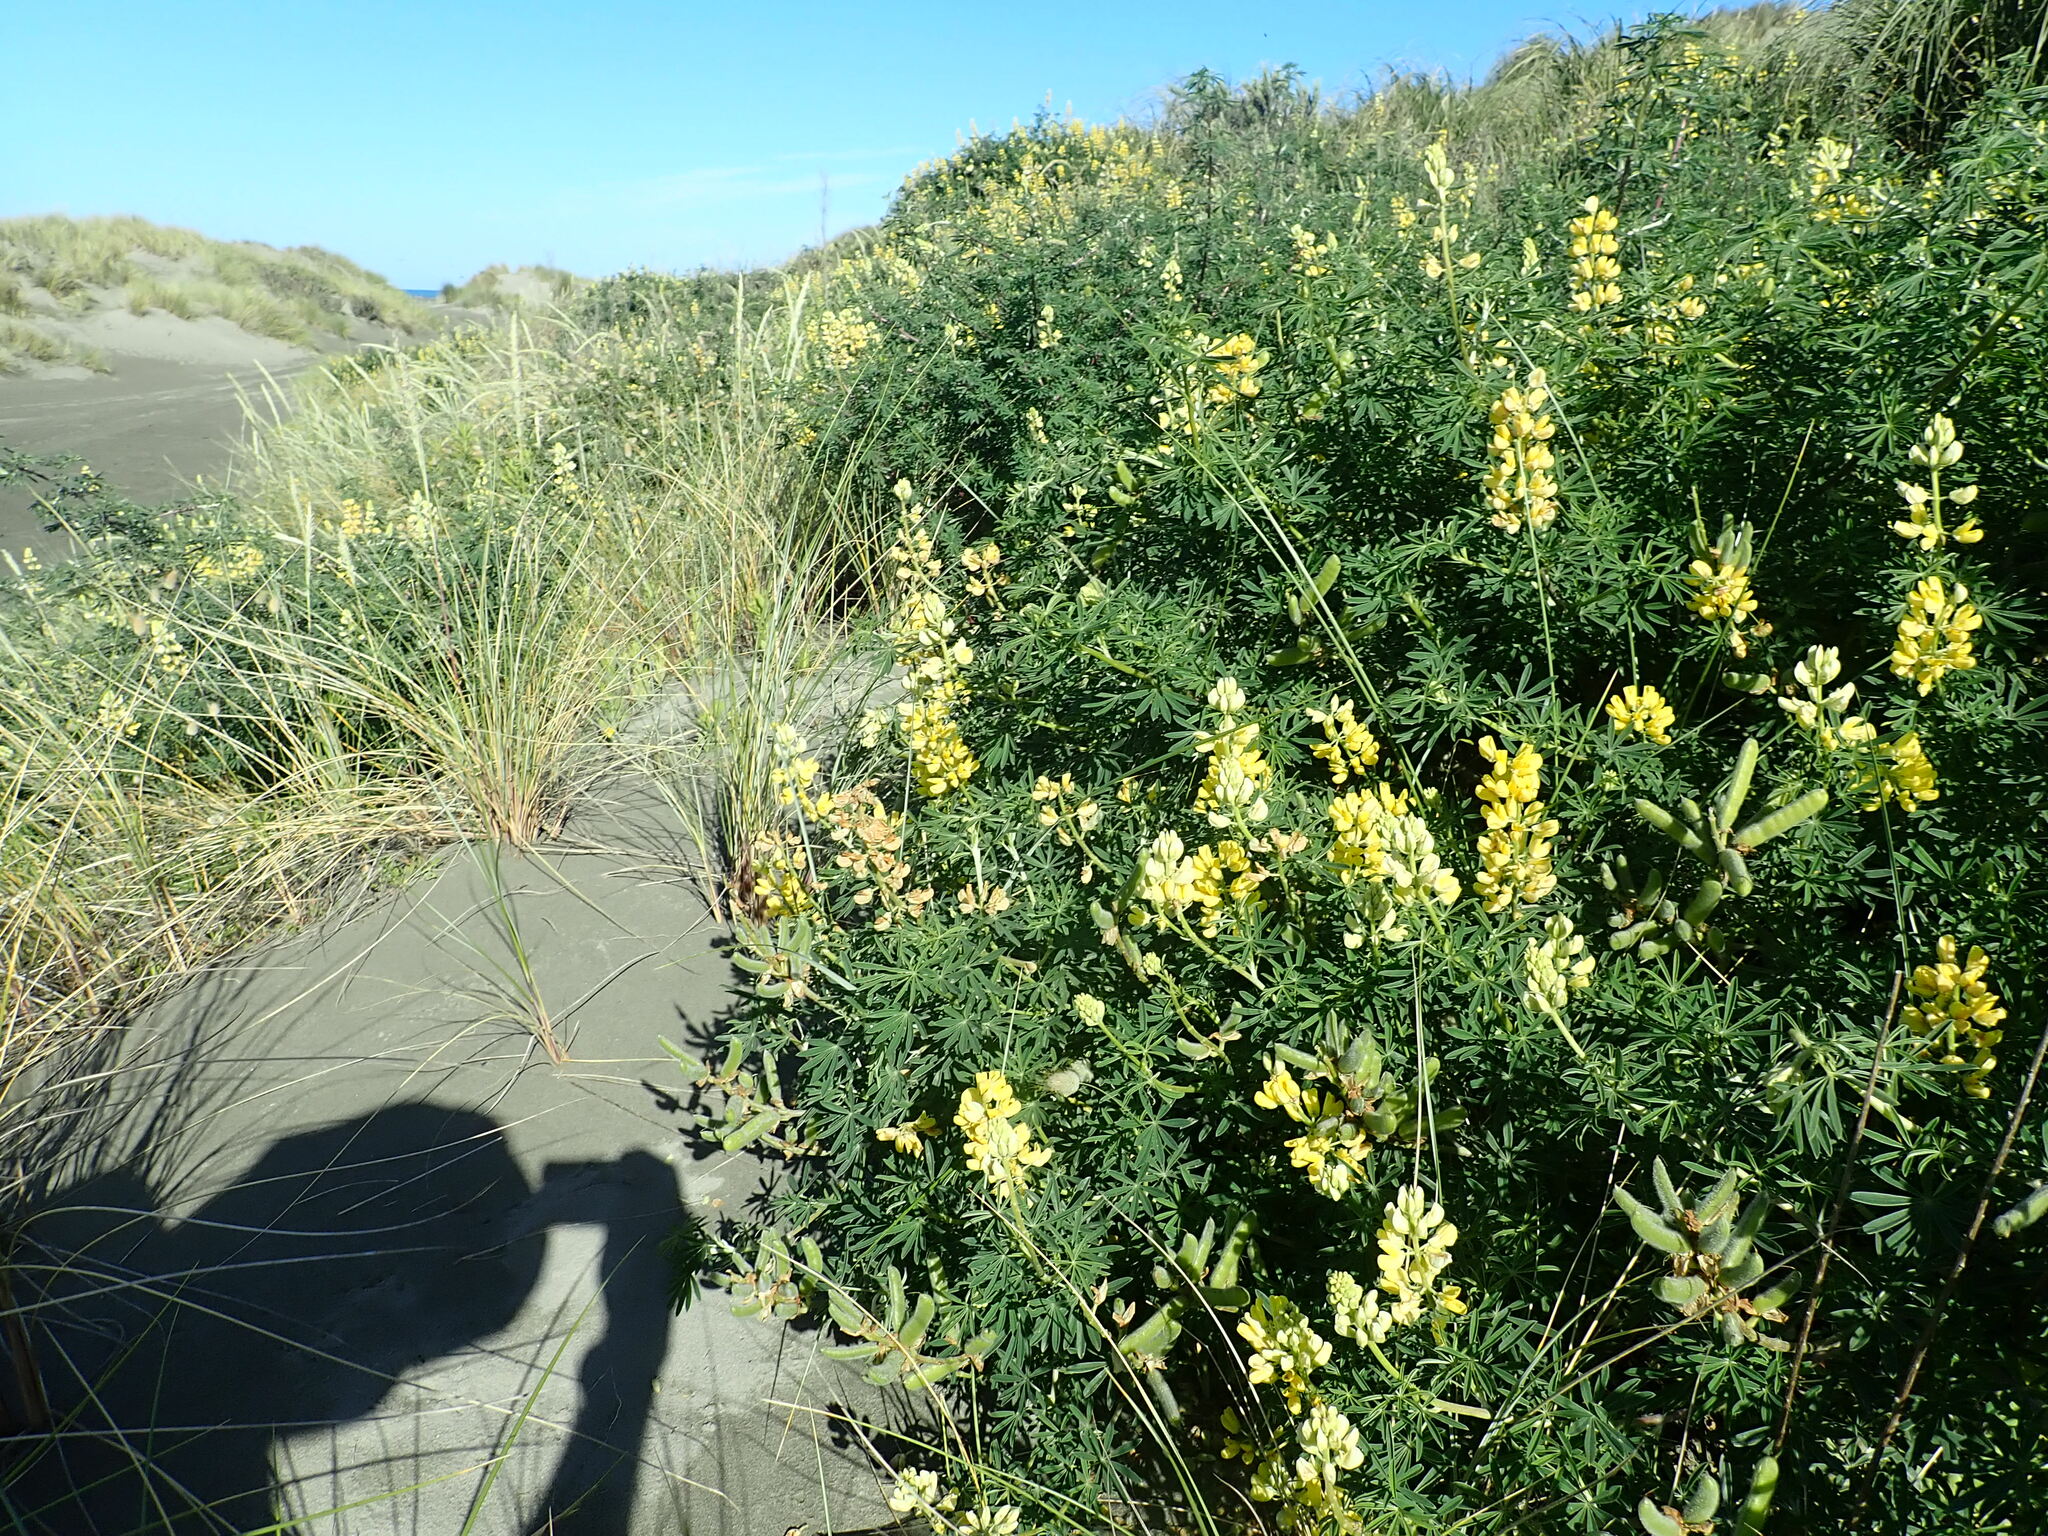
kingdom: Plantae
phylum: Tracheophyta
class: Magnoliopsida
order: Fabales
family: Fabaceae
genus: Lupinus
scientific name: Lupinus arboreus
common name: Yellow bush lupine
